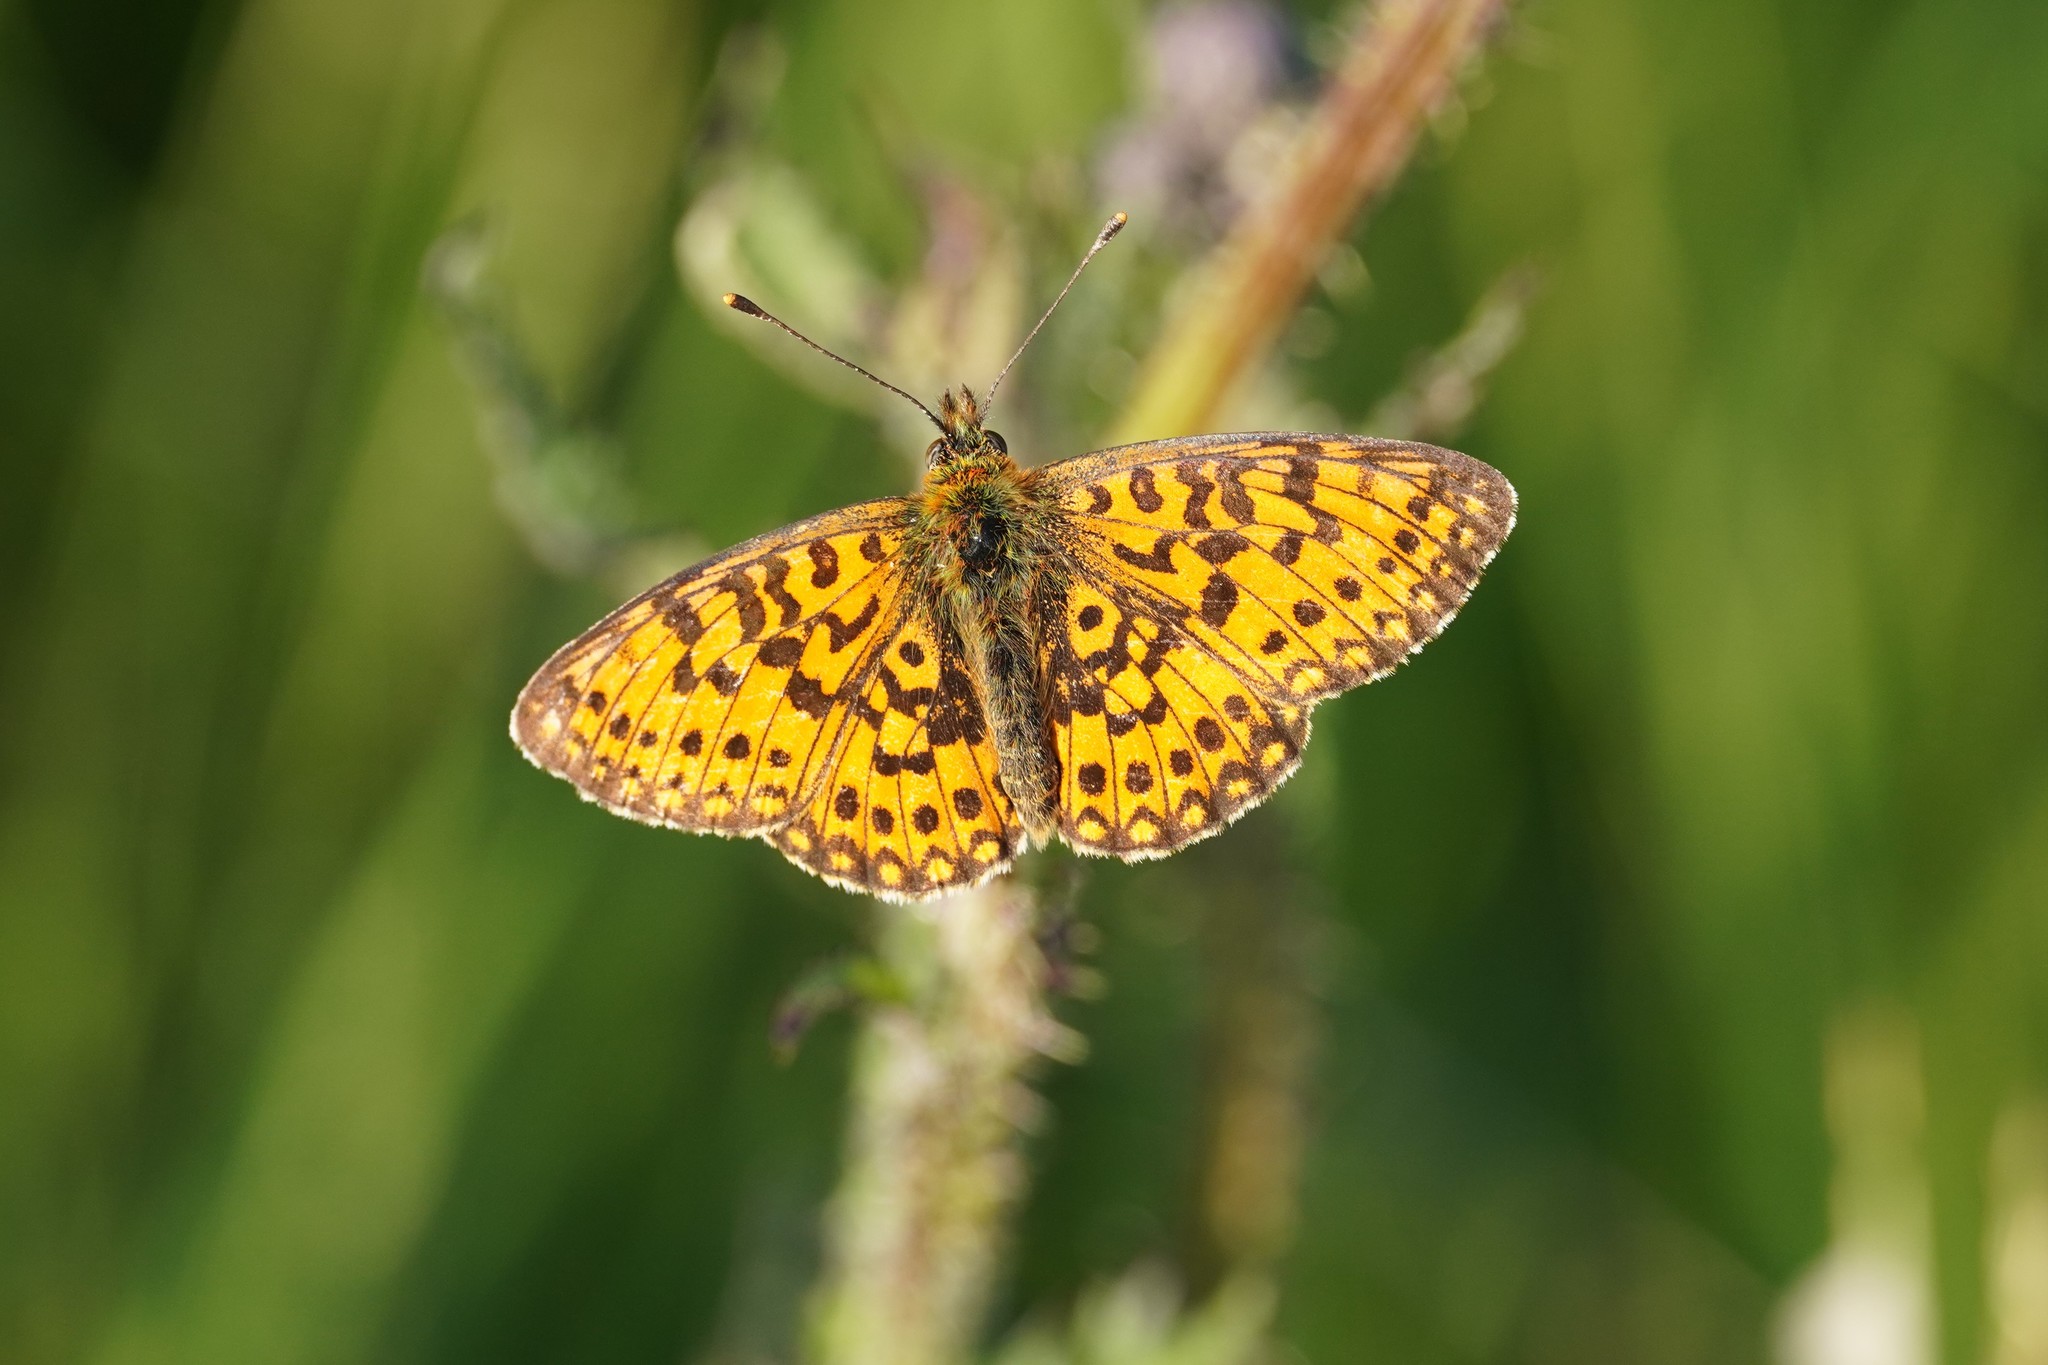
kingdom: Animalia
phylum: Arthropoda
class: Insecta
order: Lepidoptera
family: Nymphalidae
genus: Boloria
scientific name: Boloria selene
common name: Small pearl-bordered fritillary
